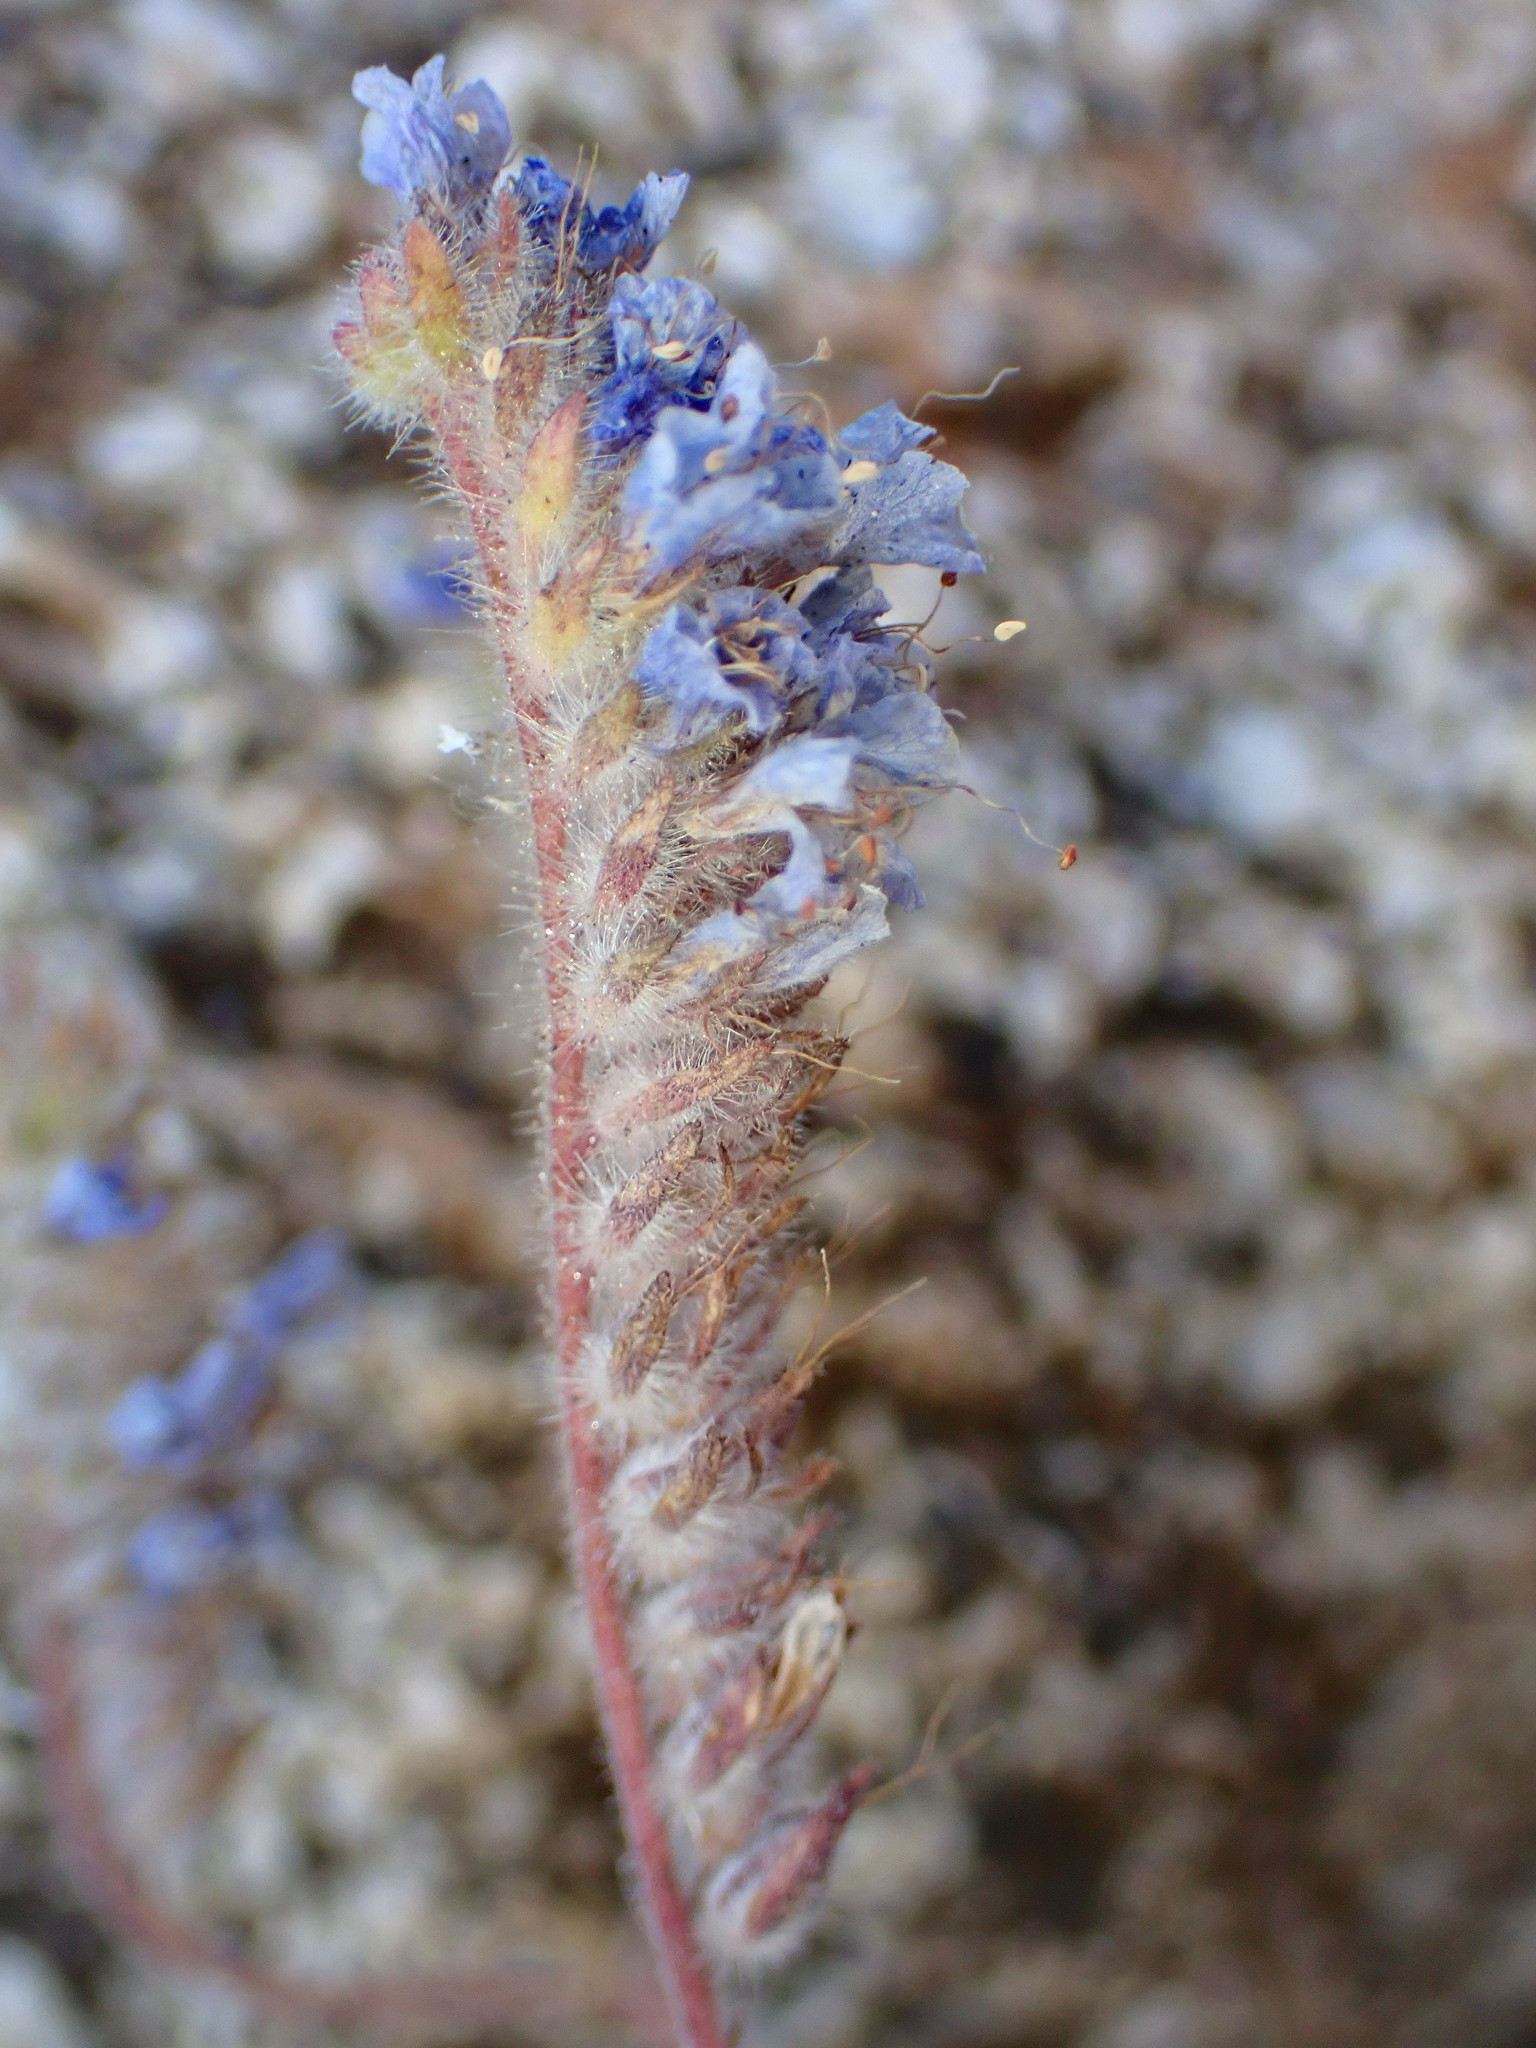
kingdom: Plantae
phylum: Tracheophyta
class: Magnoliopsida
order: Boraginales
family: Hydrophyllaceae
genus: Phacelia
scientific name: Phacelia distans
